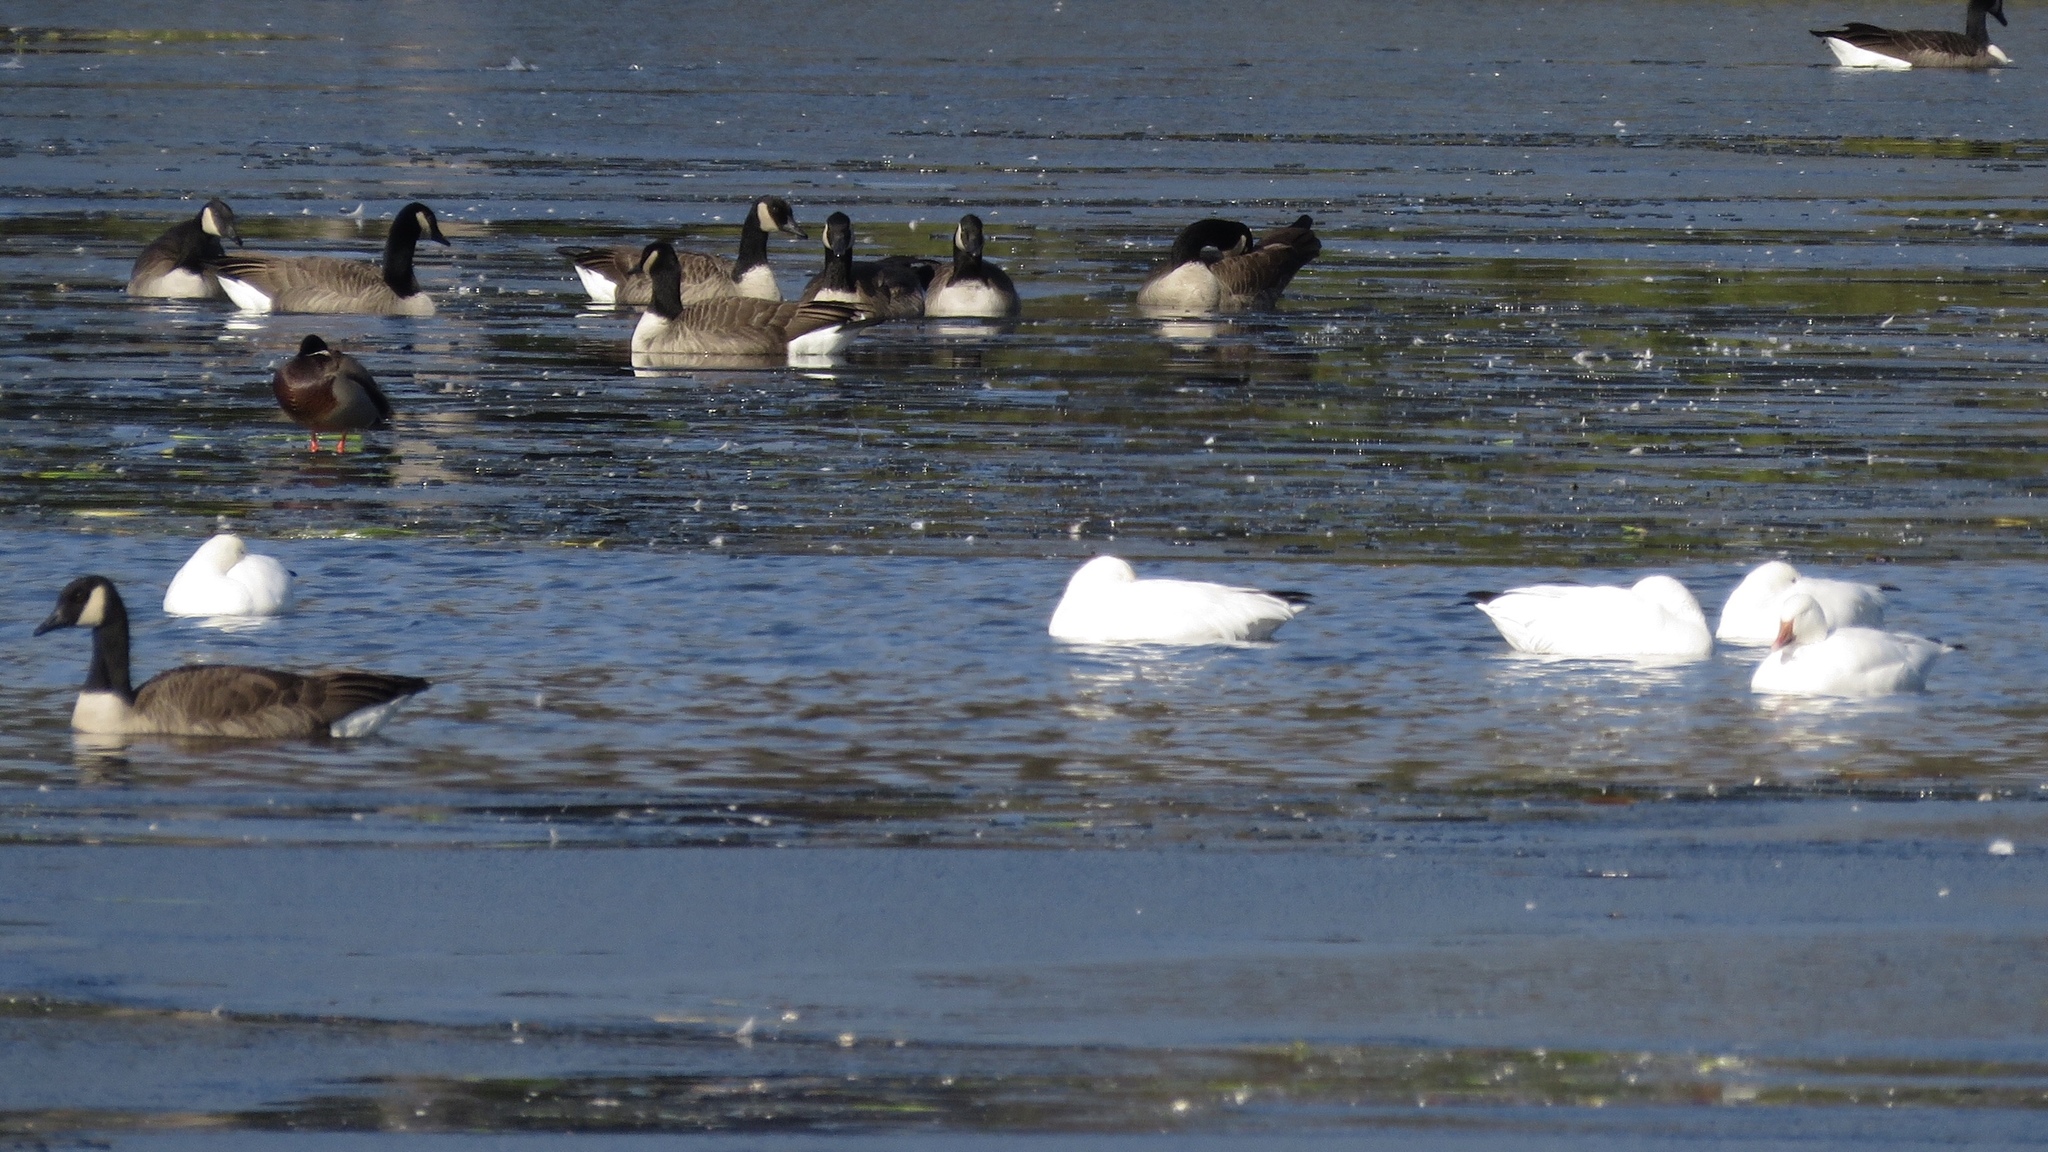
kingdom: Animalia
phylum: Chordata
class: Aves
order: Anseriformes
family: Anatidae
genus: Anser
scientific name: Anser caerulescens
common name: Snow goose
